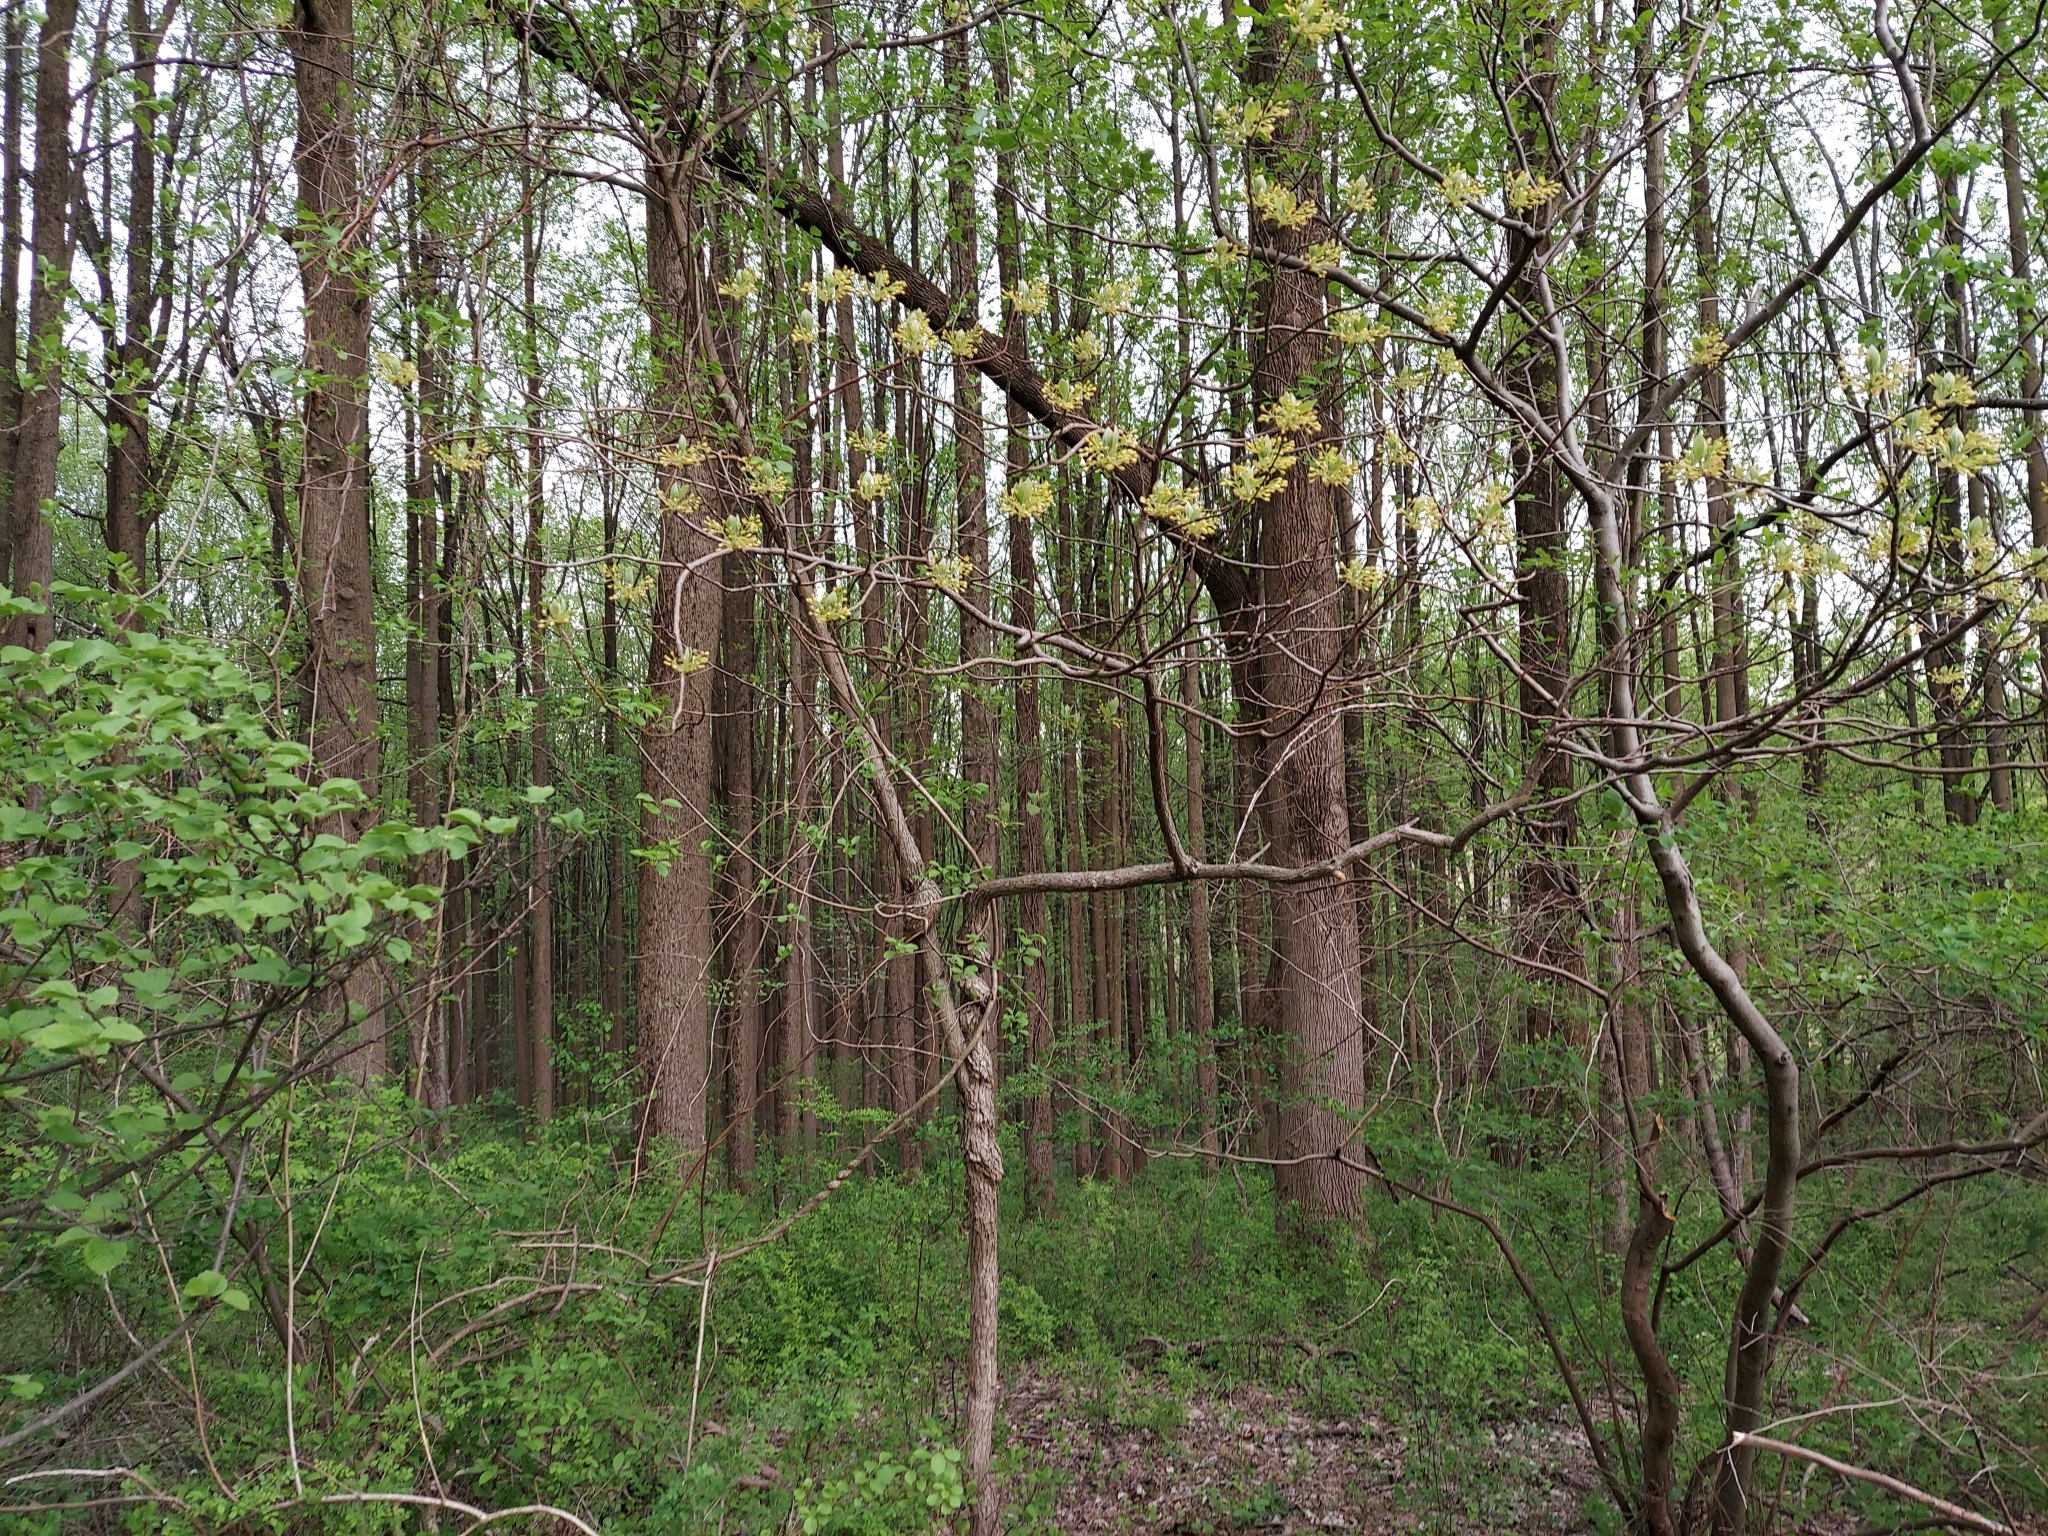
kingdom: Plantae
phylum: Tracheophyta
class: Magnoliopsida
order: Laurales
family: Lauraceae
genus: Sassafras
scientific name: Sassafras albidum
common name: Sassafras
